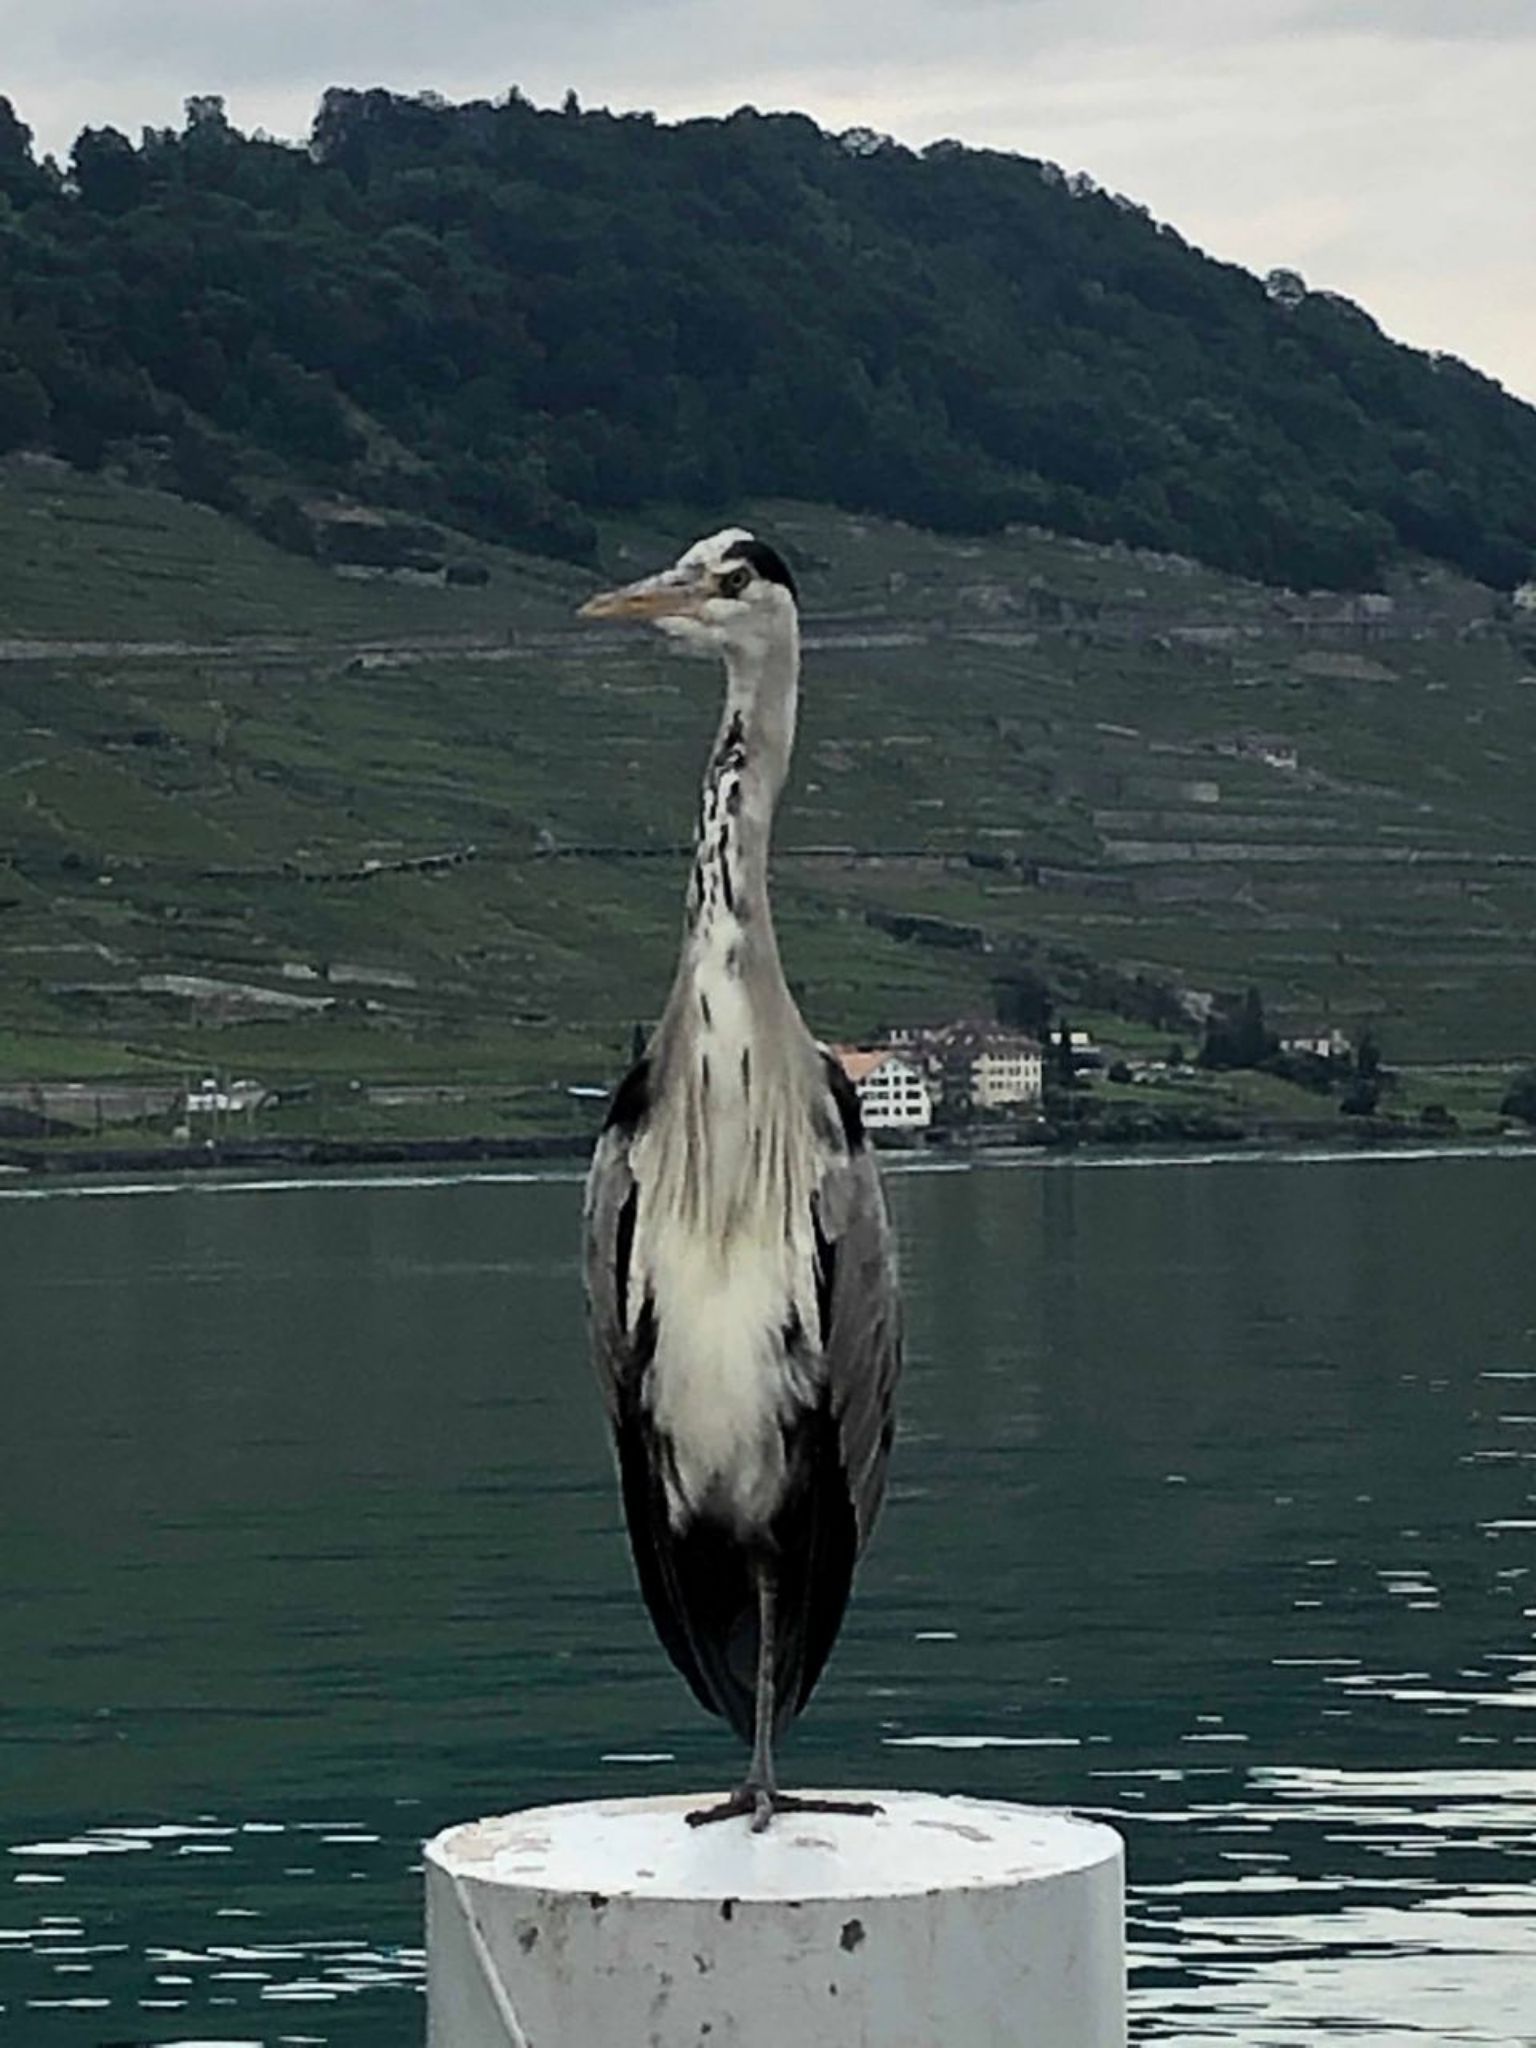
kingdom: Animalia
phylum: Chordata
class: Aves
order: Pelecaniformes
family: Ardeidae
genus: Ardea
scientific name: Ardea cinerea
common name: Grey heron
